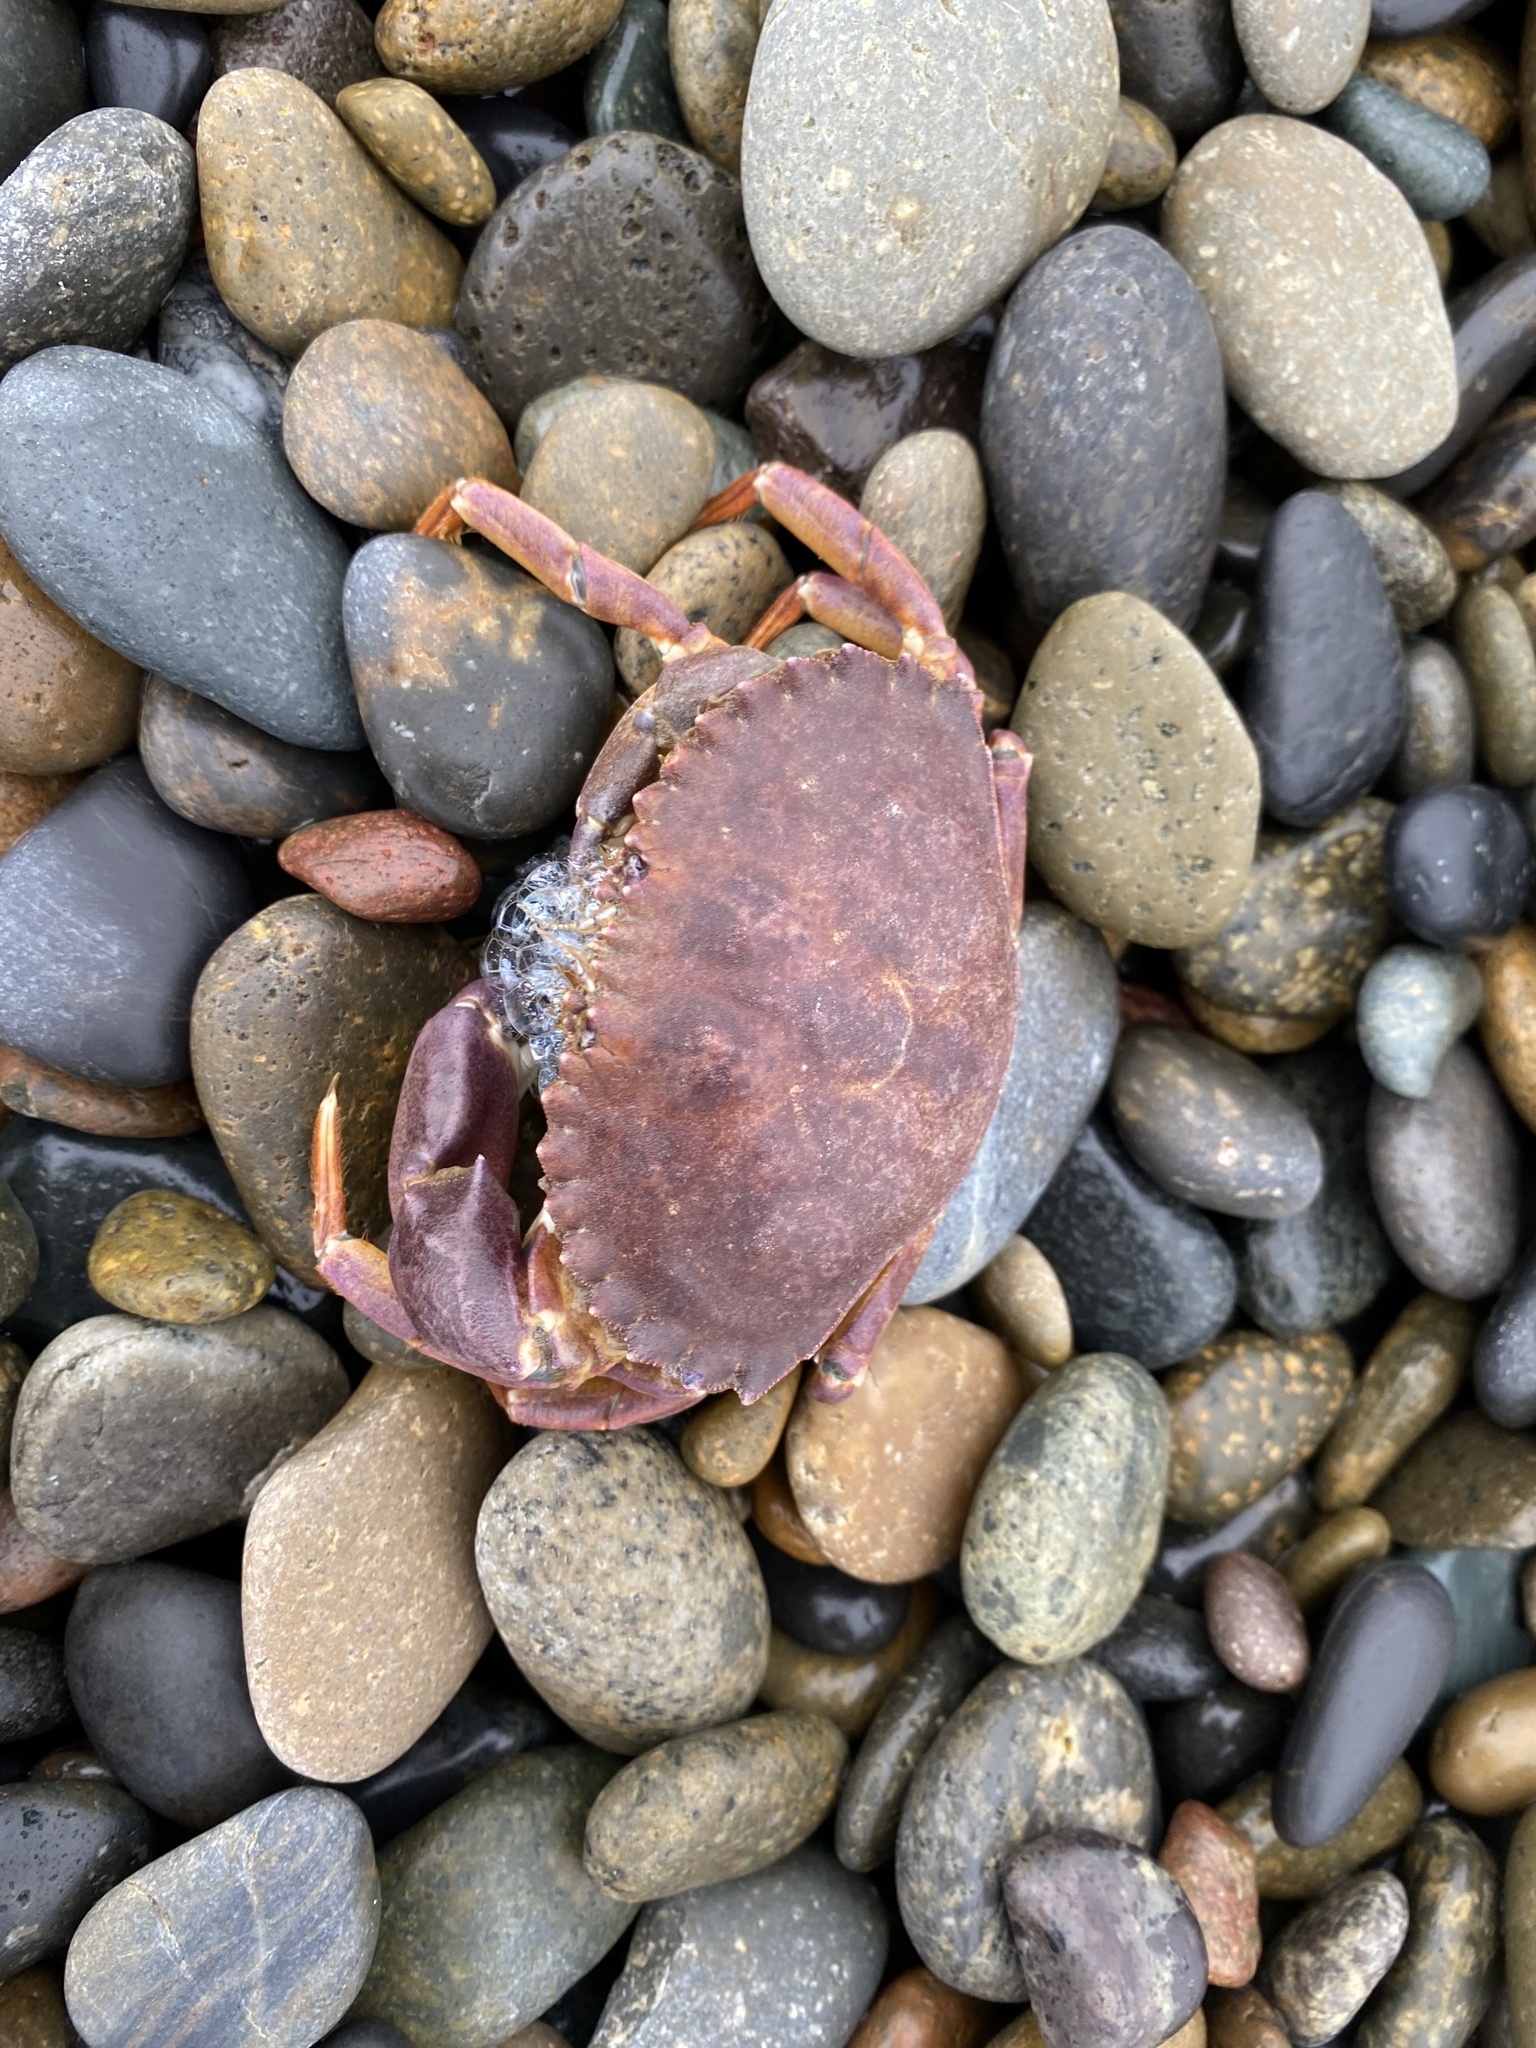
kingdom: Animalia
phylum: Arthropoda
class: Malacostraca
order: Decapoda
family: Cancridae
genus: Metacarcinus
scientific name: Metacarcinus anthonyi
